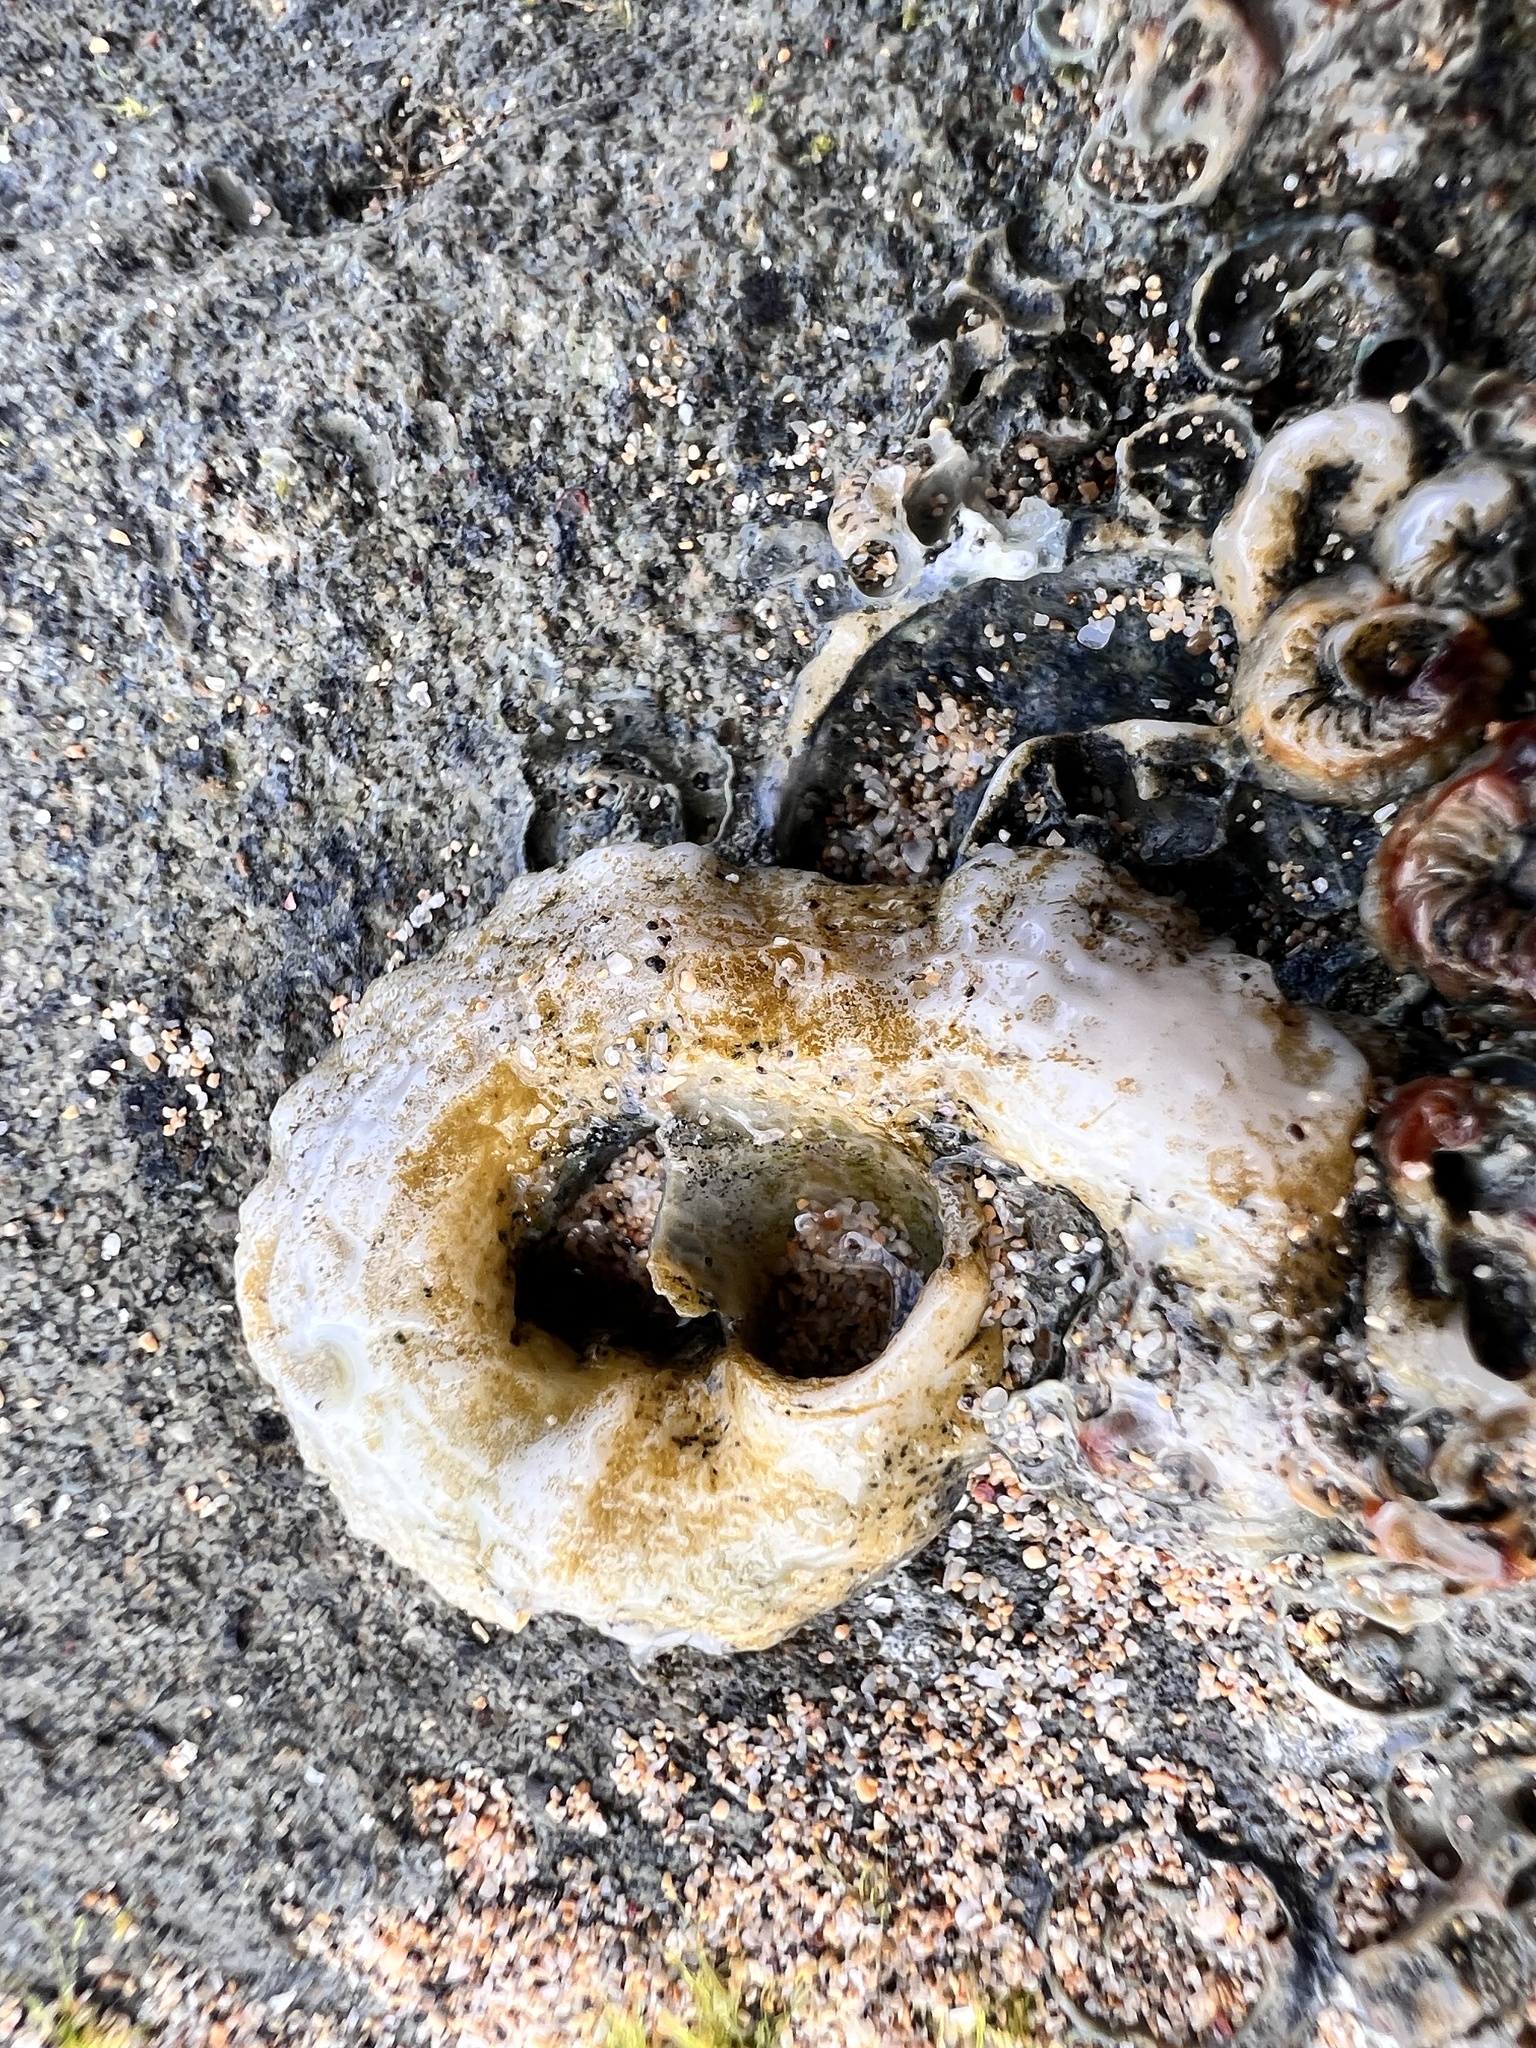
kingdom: Animalia
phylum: Mollusca
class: Gastropoda
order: Littorinimorpha
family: Vermetidae
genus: Thylacodes
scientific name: Thylacodes variabilis
